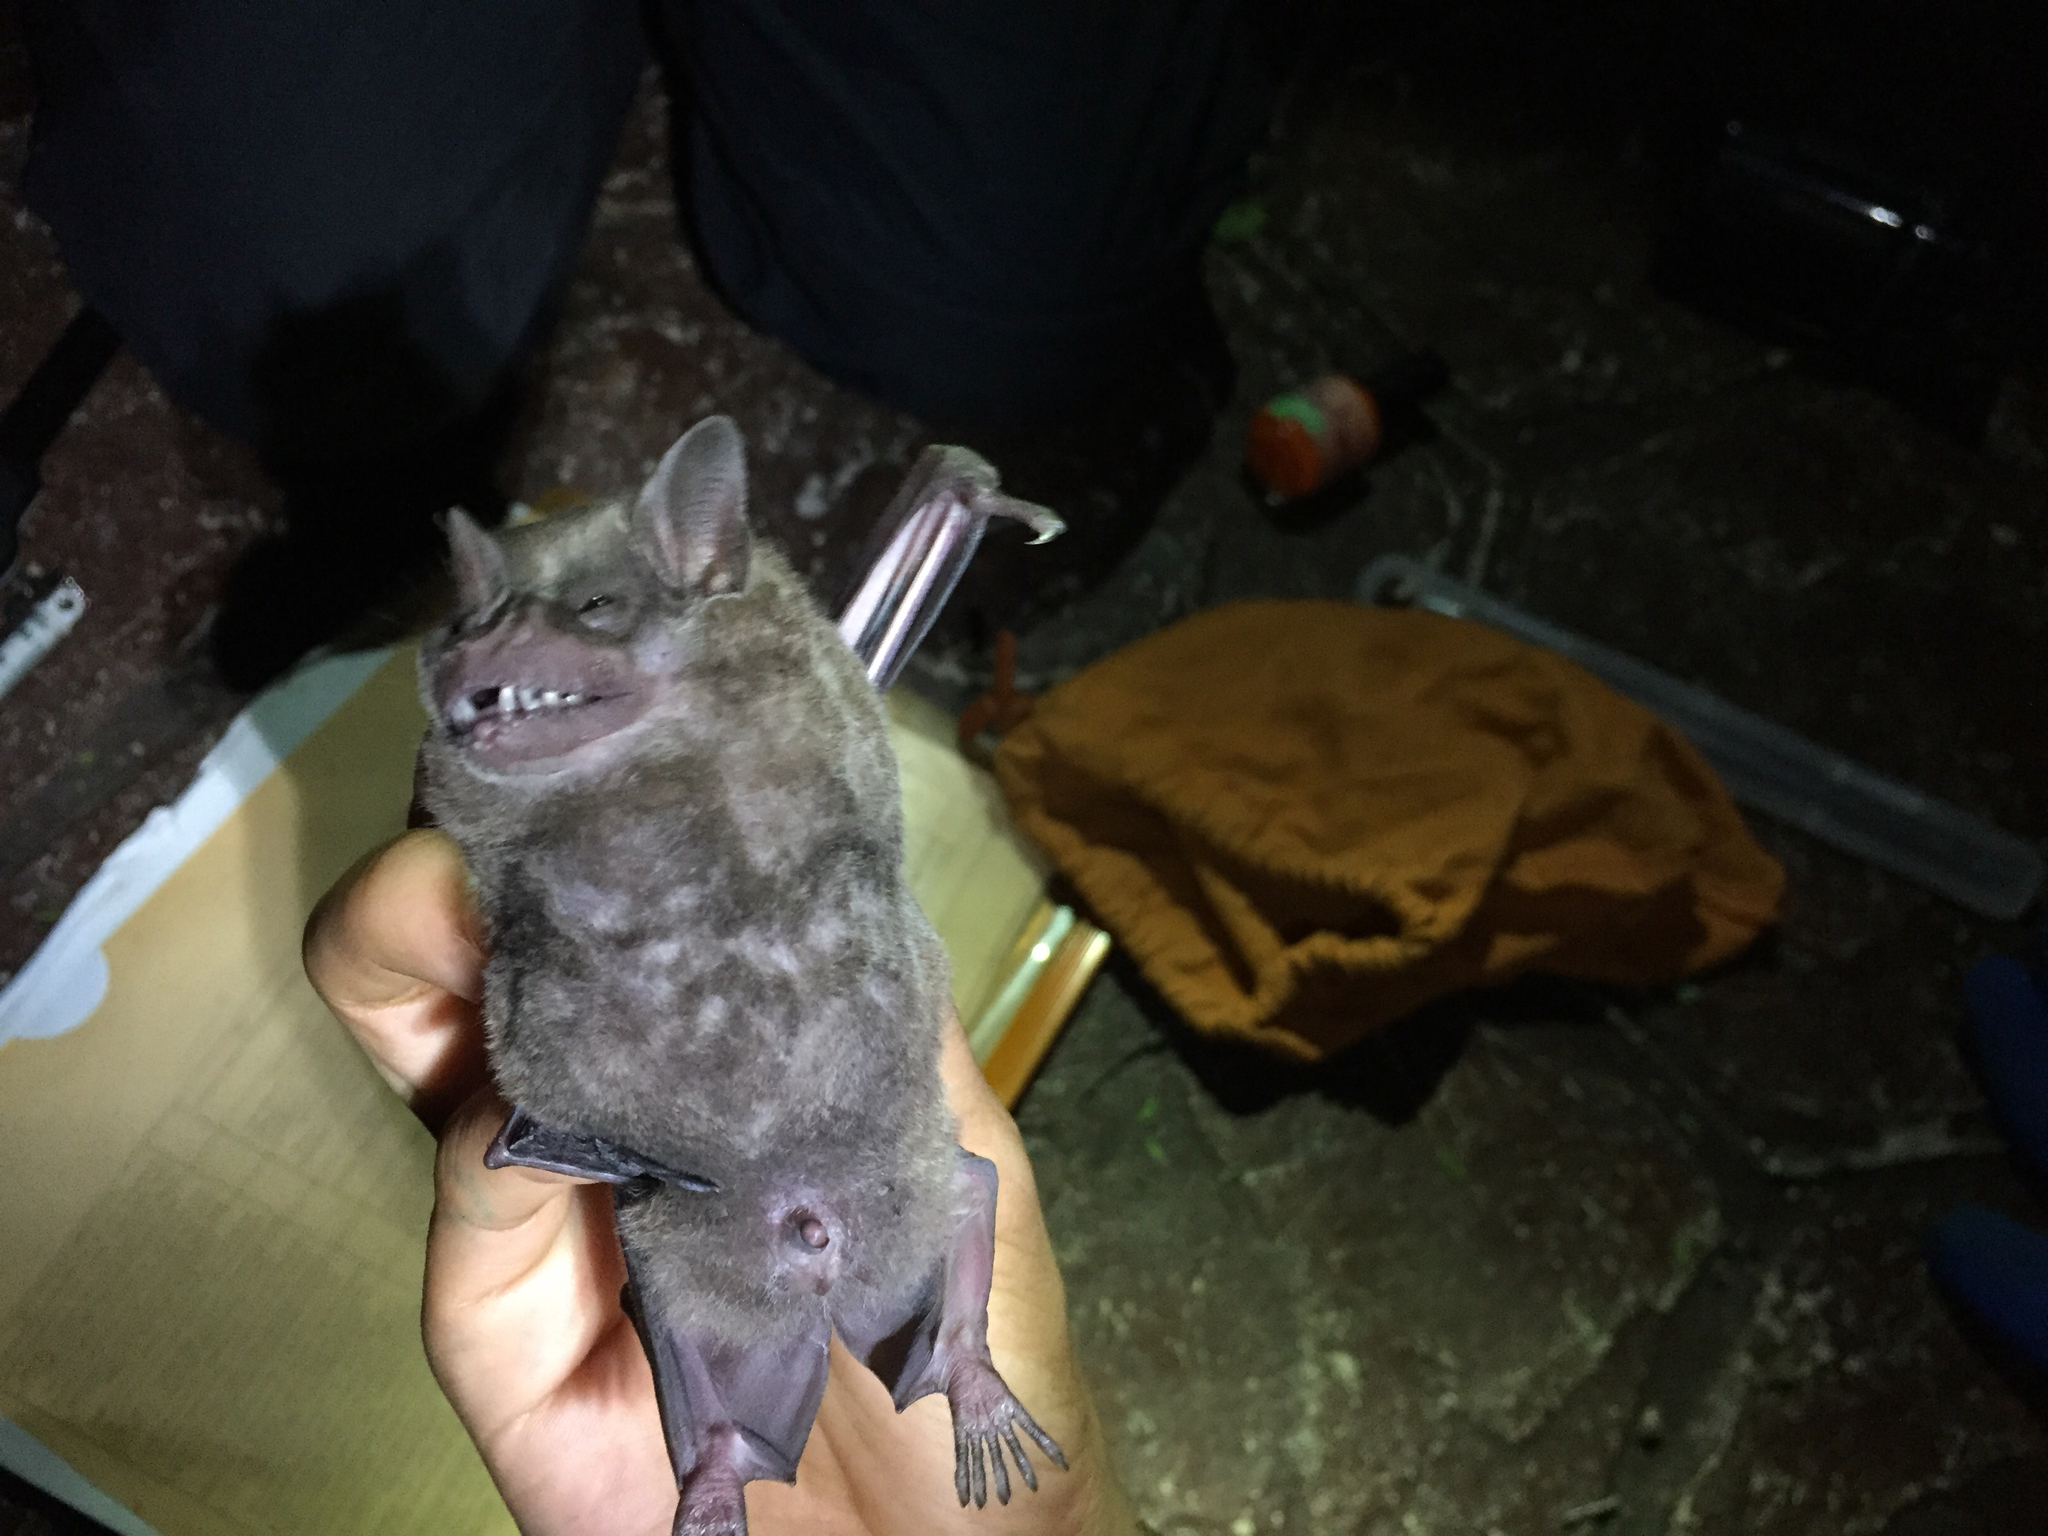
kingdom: Animalia
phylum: Chordata
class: Mammalia
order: Chiroptera
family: Phyllostomidae
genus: Artibeus
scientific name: Artibeus jamaicensis
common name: Jamaican fruit-eating bat
